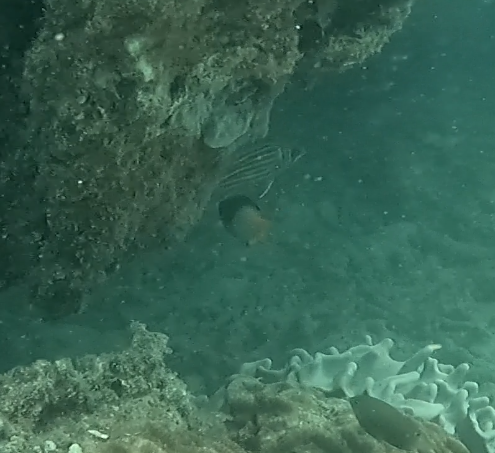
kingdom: Animalia
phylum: Chordata
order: Perciformes
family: Labridae
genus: Bodianus
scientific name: Bodianus axillaris
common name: Axilspot hogfish
